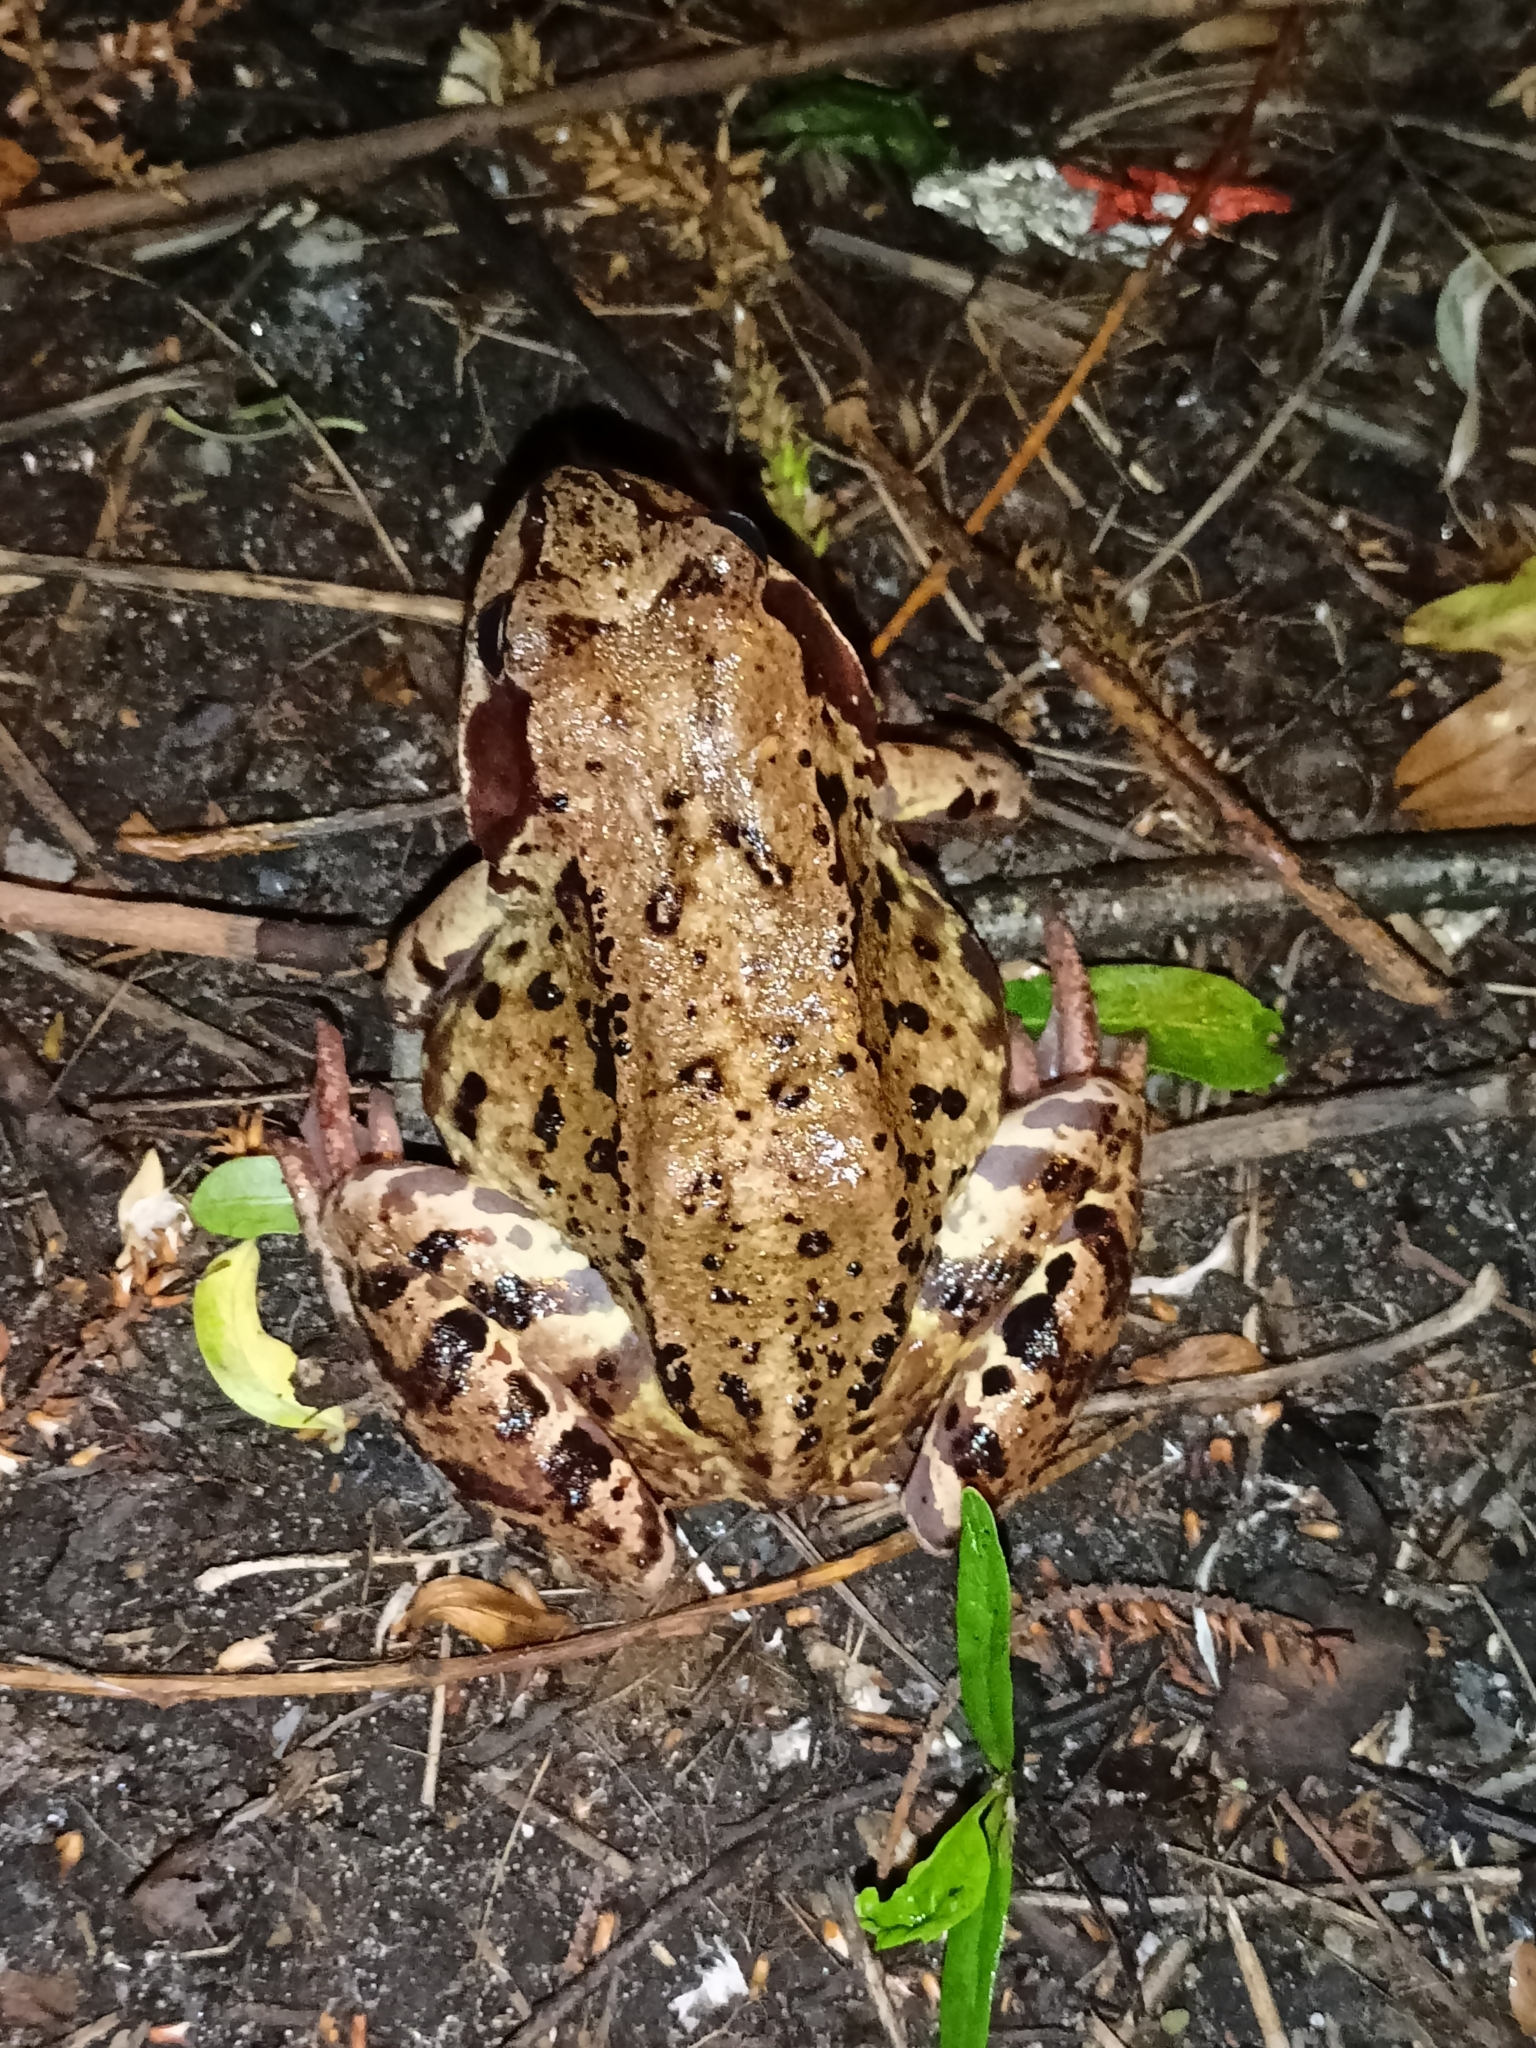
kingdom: Animalia
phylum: Chordata
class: Amphibia
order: Anura
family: Ranidae
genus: Rana
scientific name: Rana temporaria
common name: Common frog
